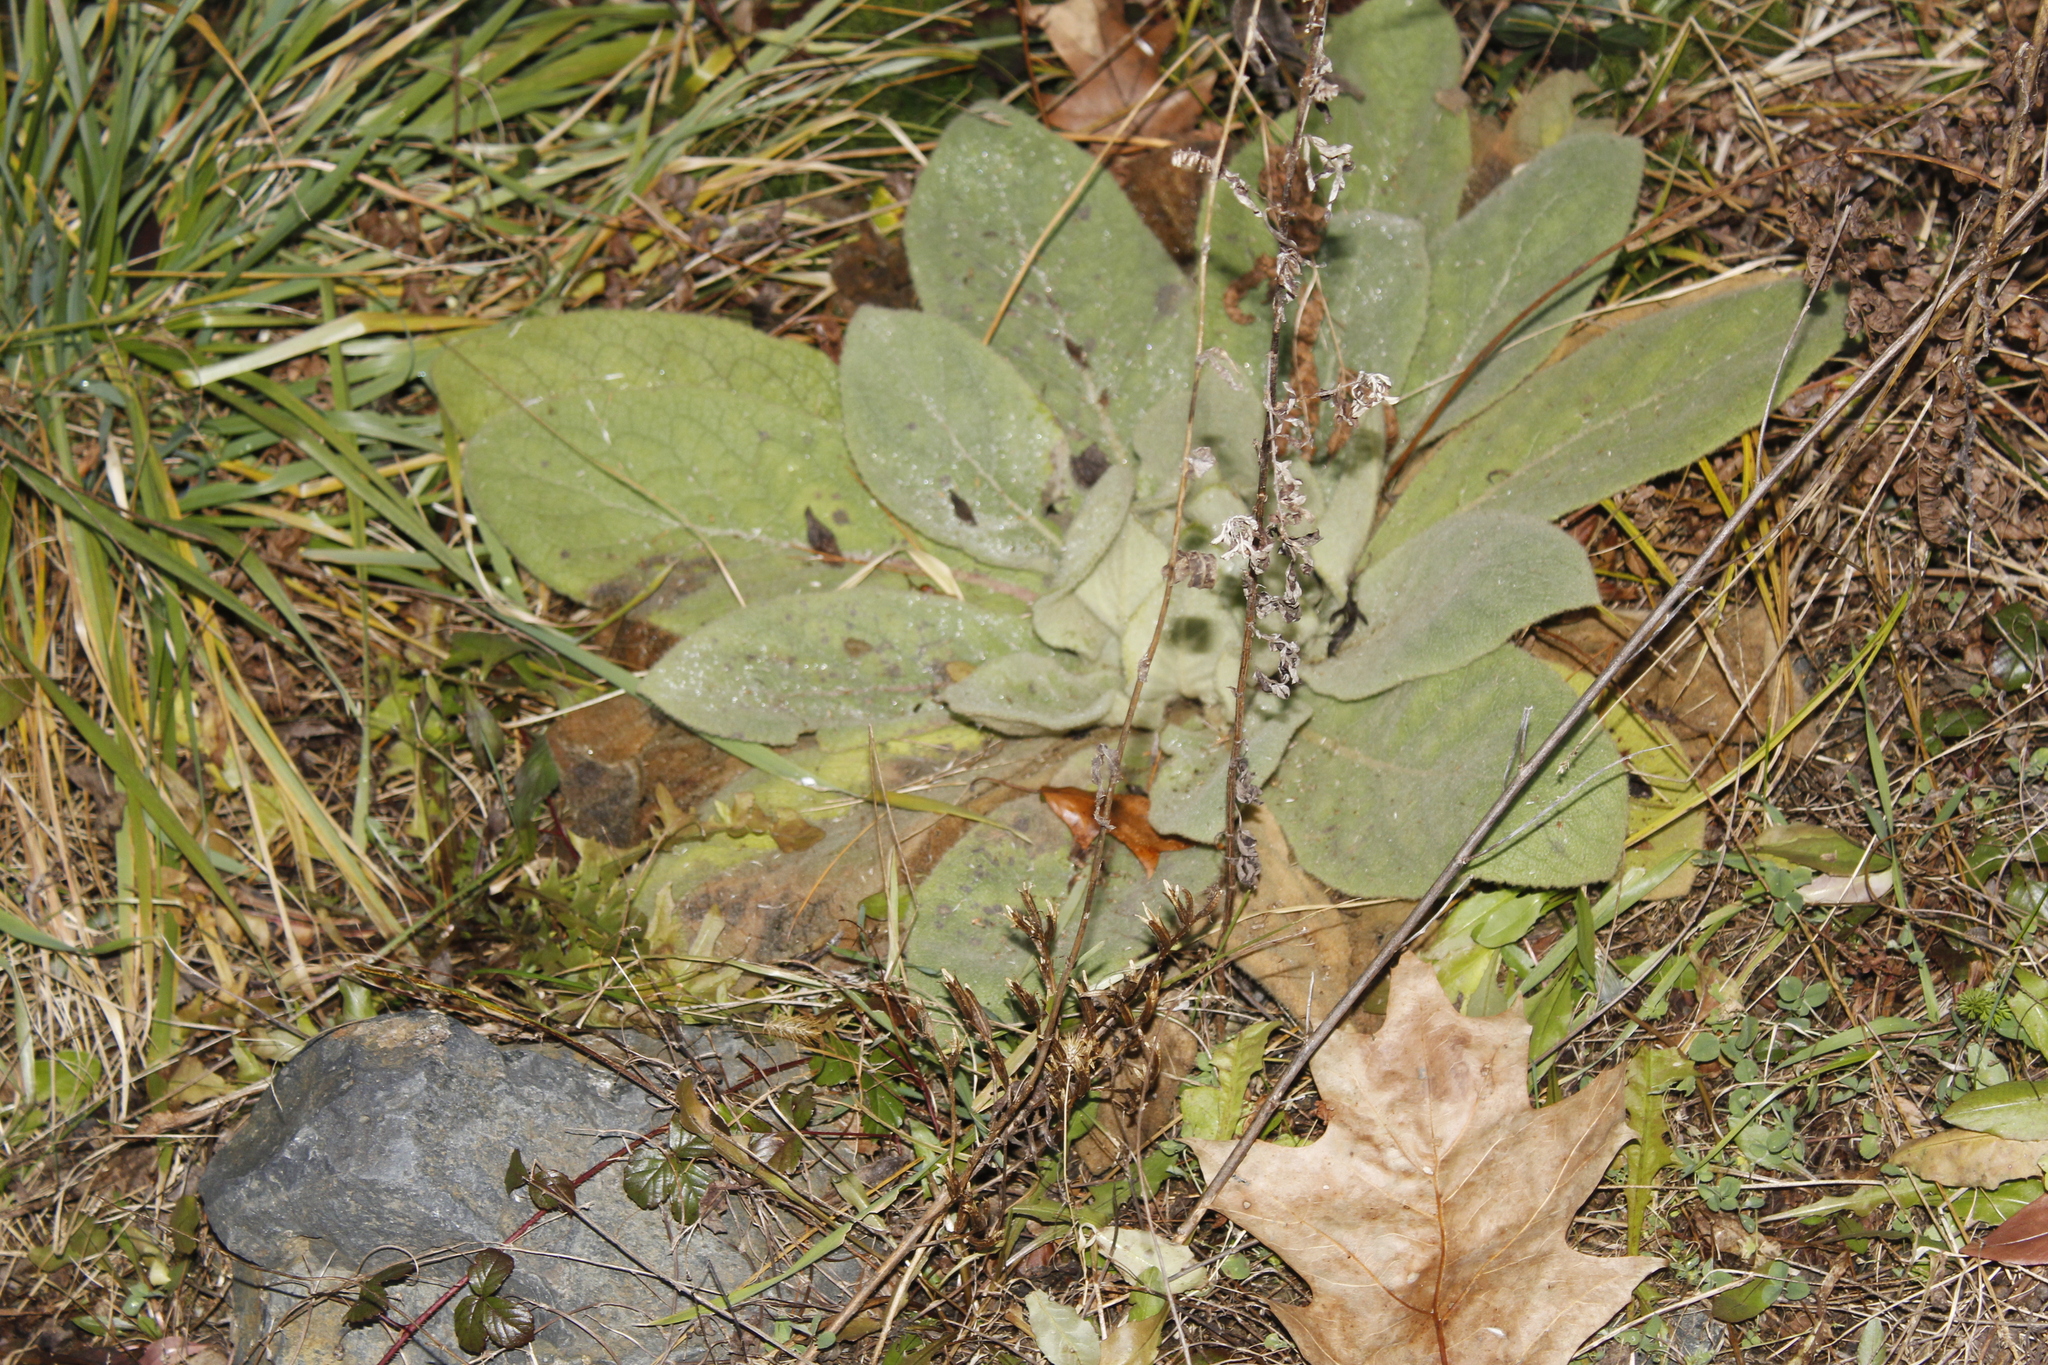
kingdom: Plantae
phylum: Tracheophyta
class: Magnoliopsida
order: Lamiales
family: Scrophulariaceae
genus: Verbascum
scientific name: Verbascum thapsus
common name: Common mullein
